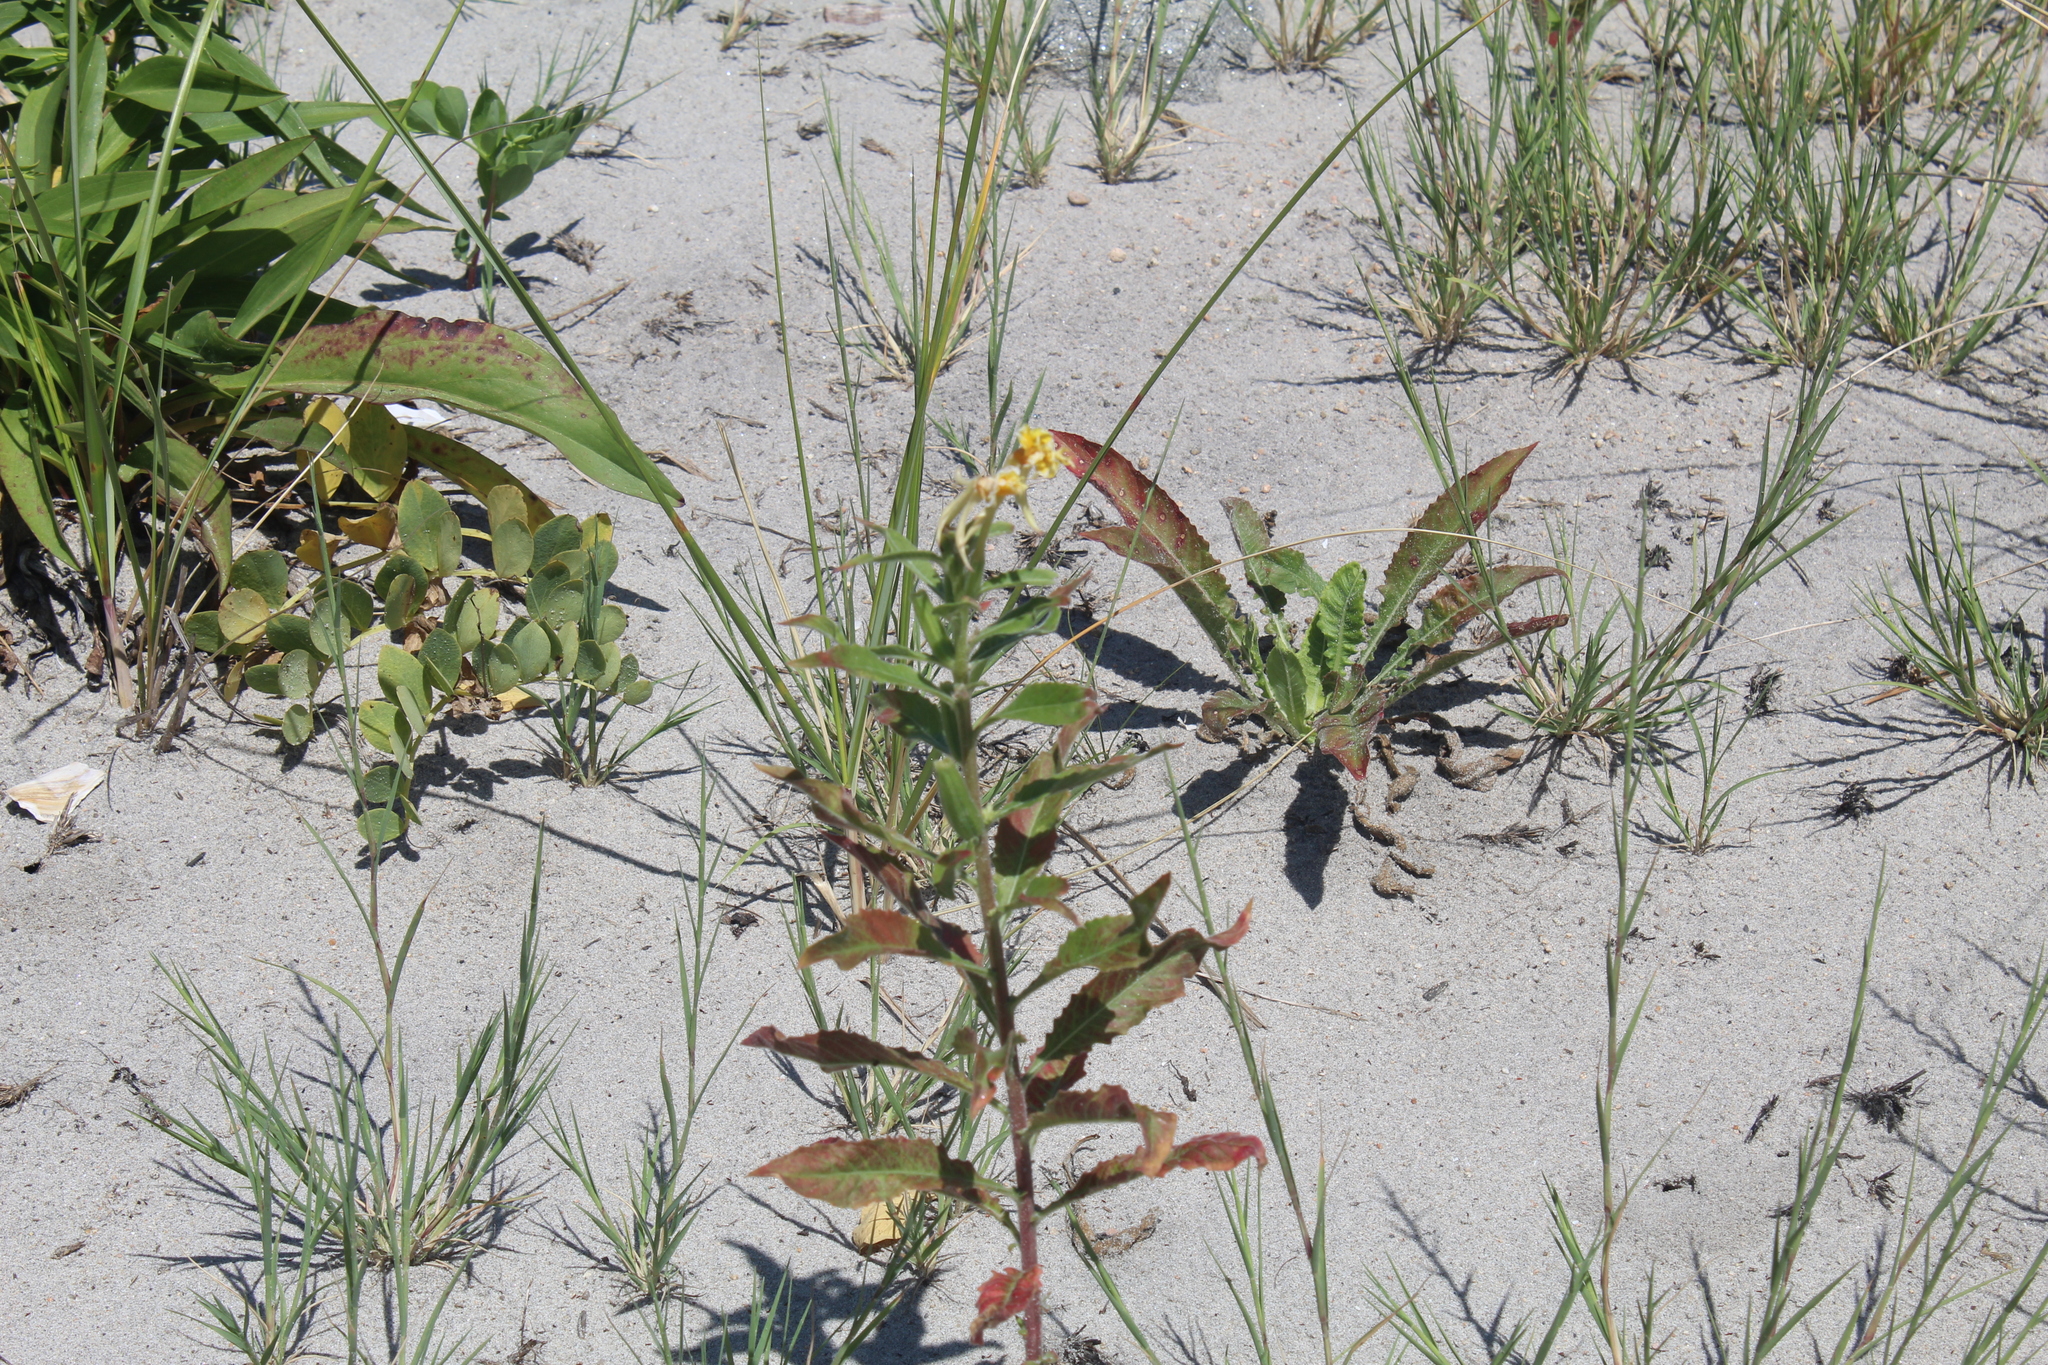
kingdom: Plantae
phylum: Tracheophyta
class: Magnoliopsida
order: Myrtales
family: Onagraceae
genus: Oenothera
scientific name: Oenothera biennis
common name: Common evening-primrose
